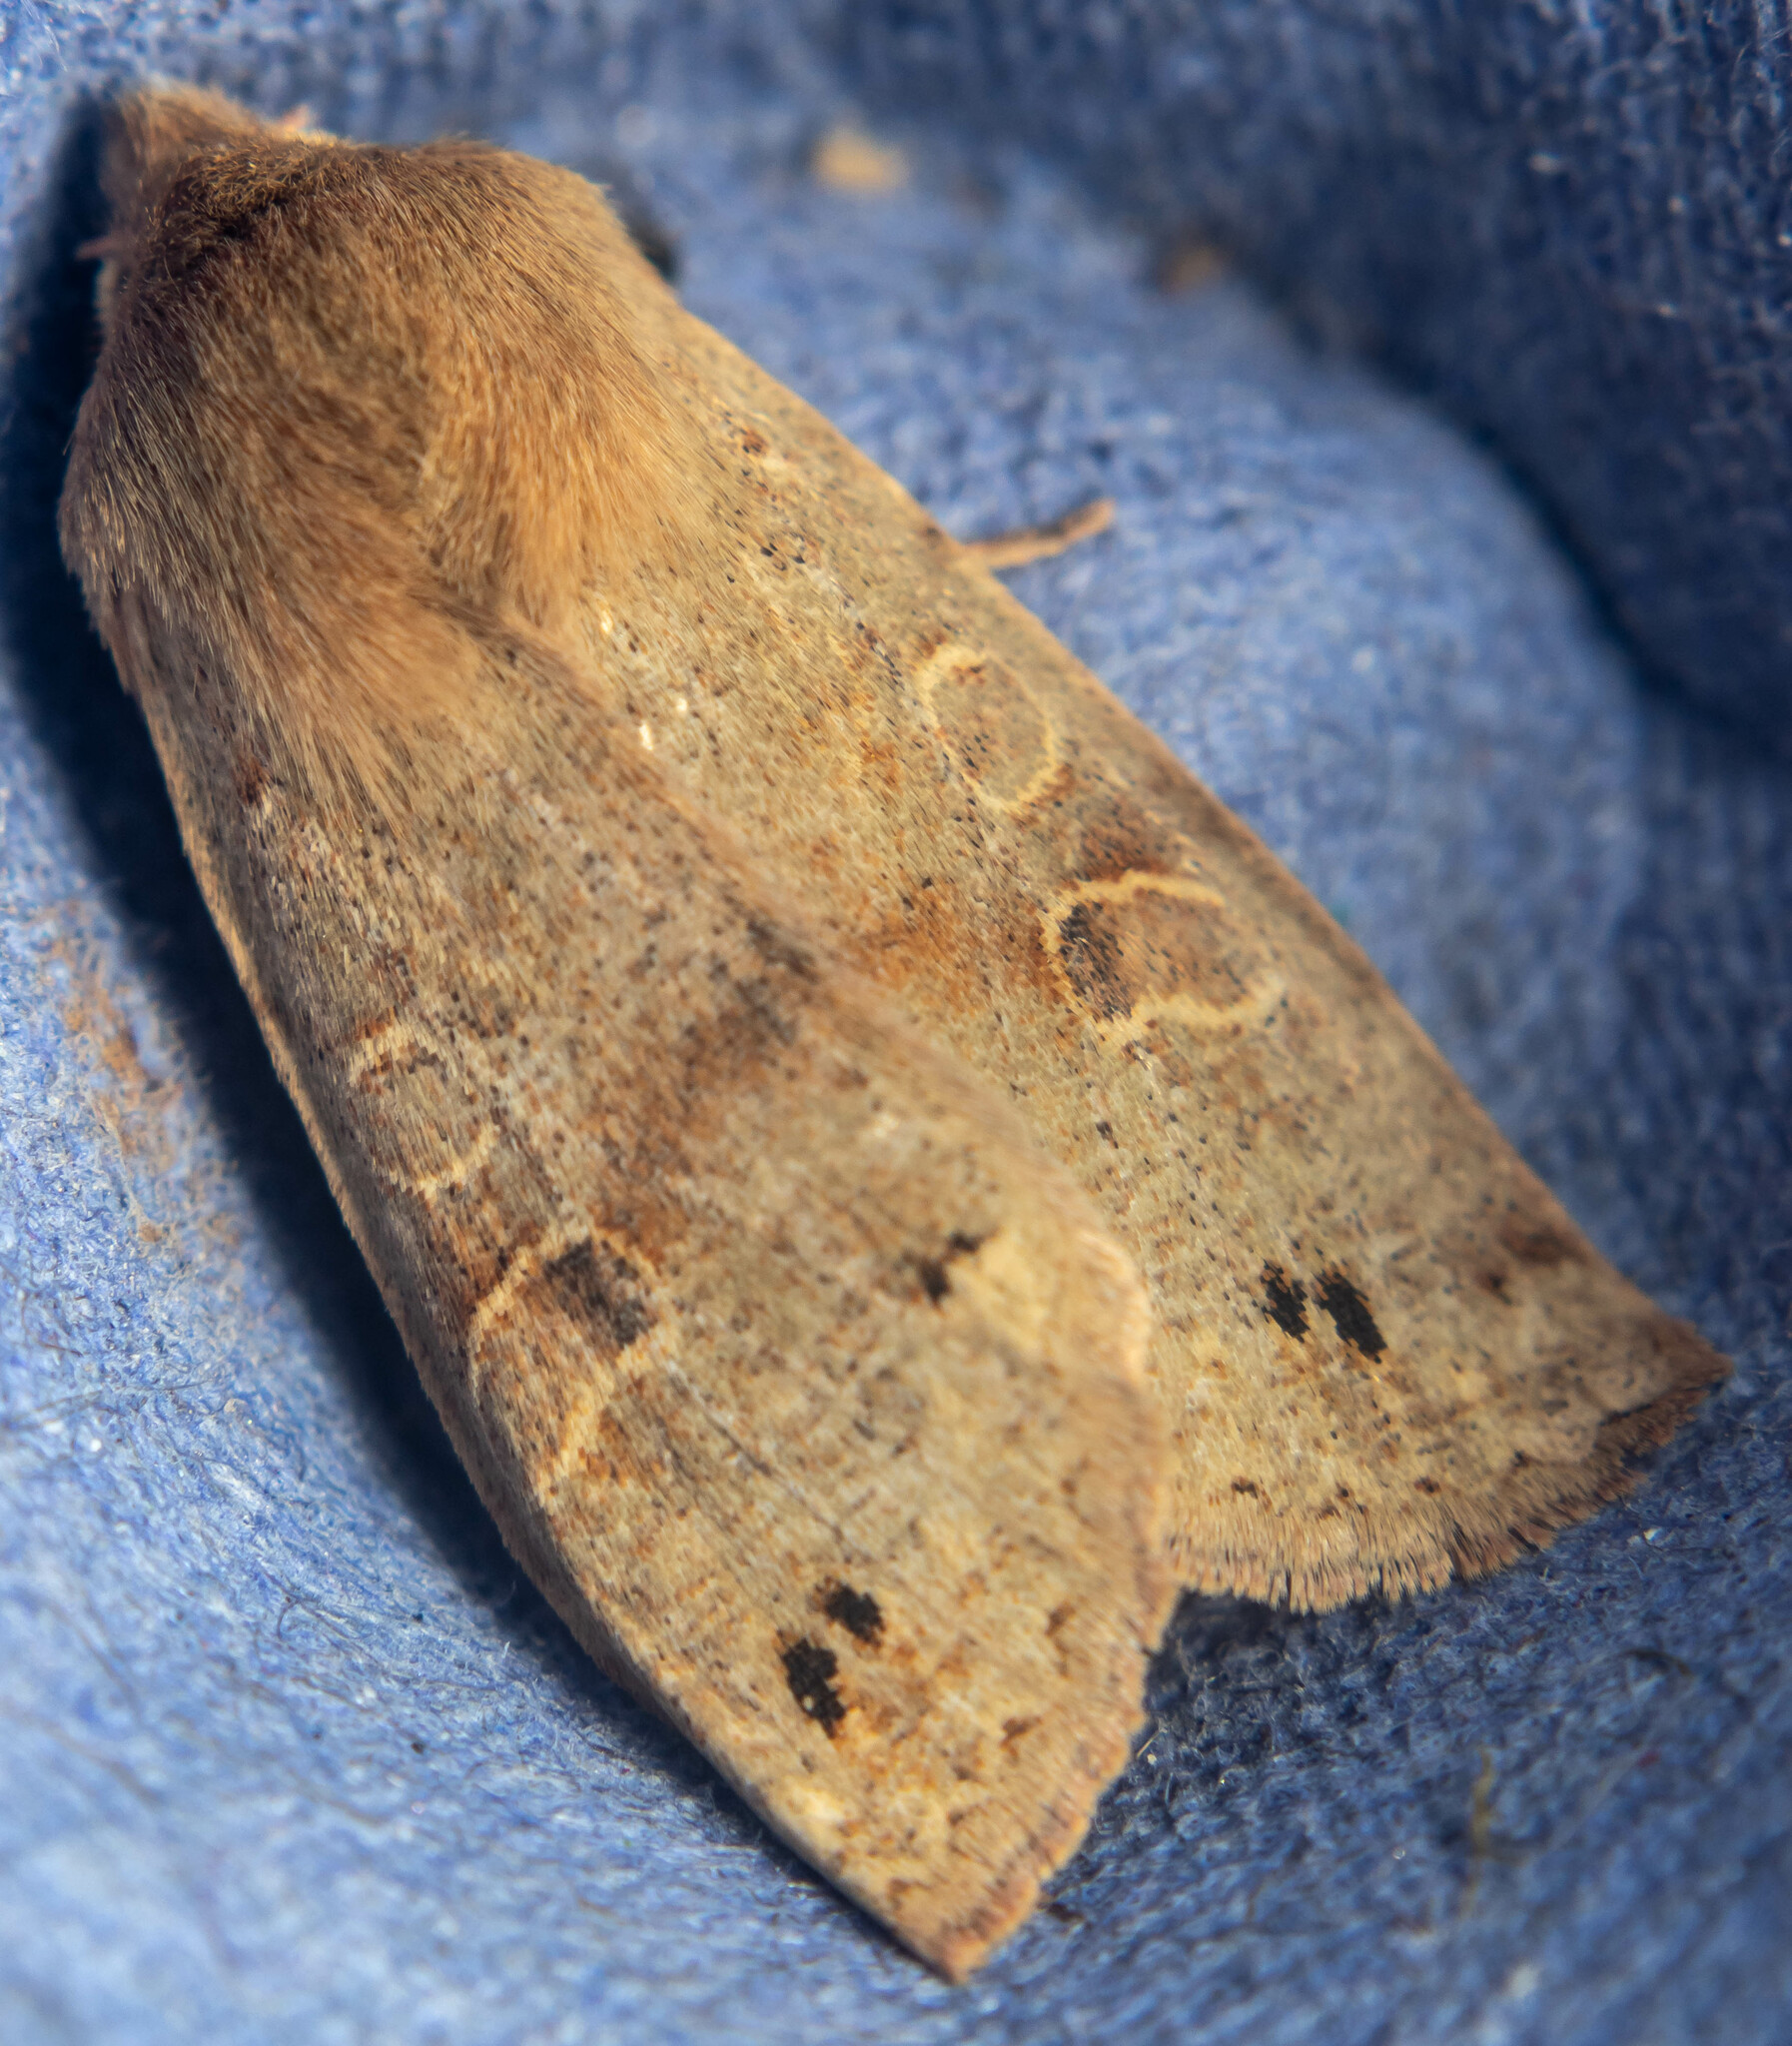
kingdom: Animalia
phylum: Arthropoda
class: Insecta
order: Lepidoptera
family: Noctuidae
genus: Anorthoa
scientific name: Anorthoa munda
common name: Twin-spotted quaker
